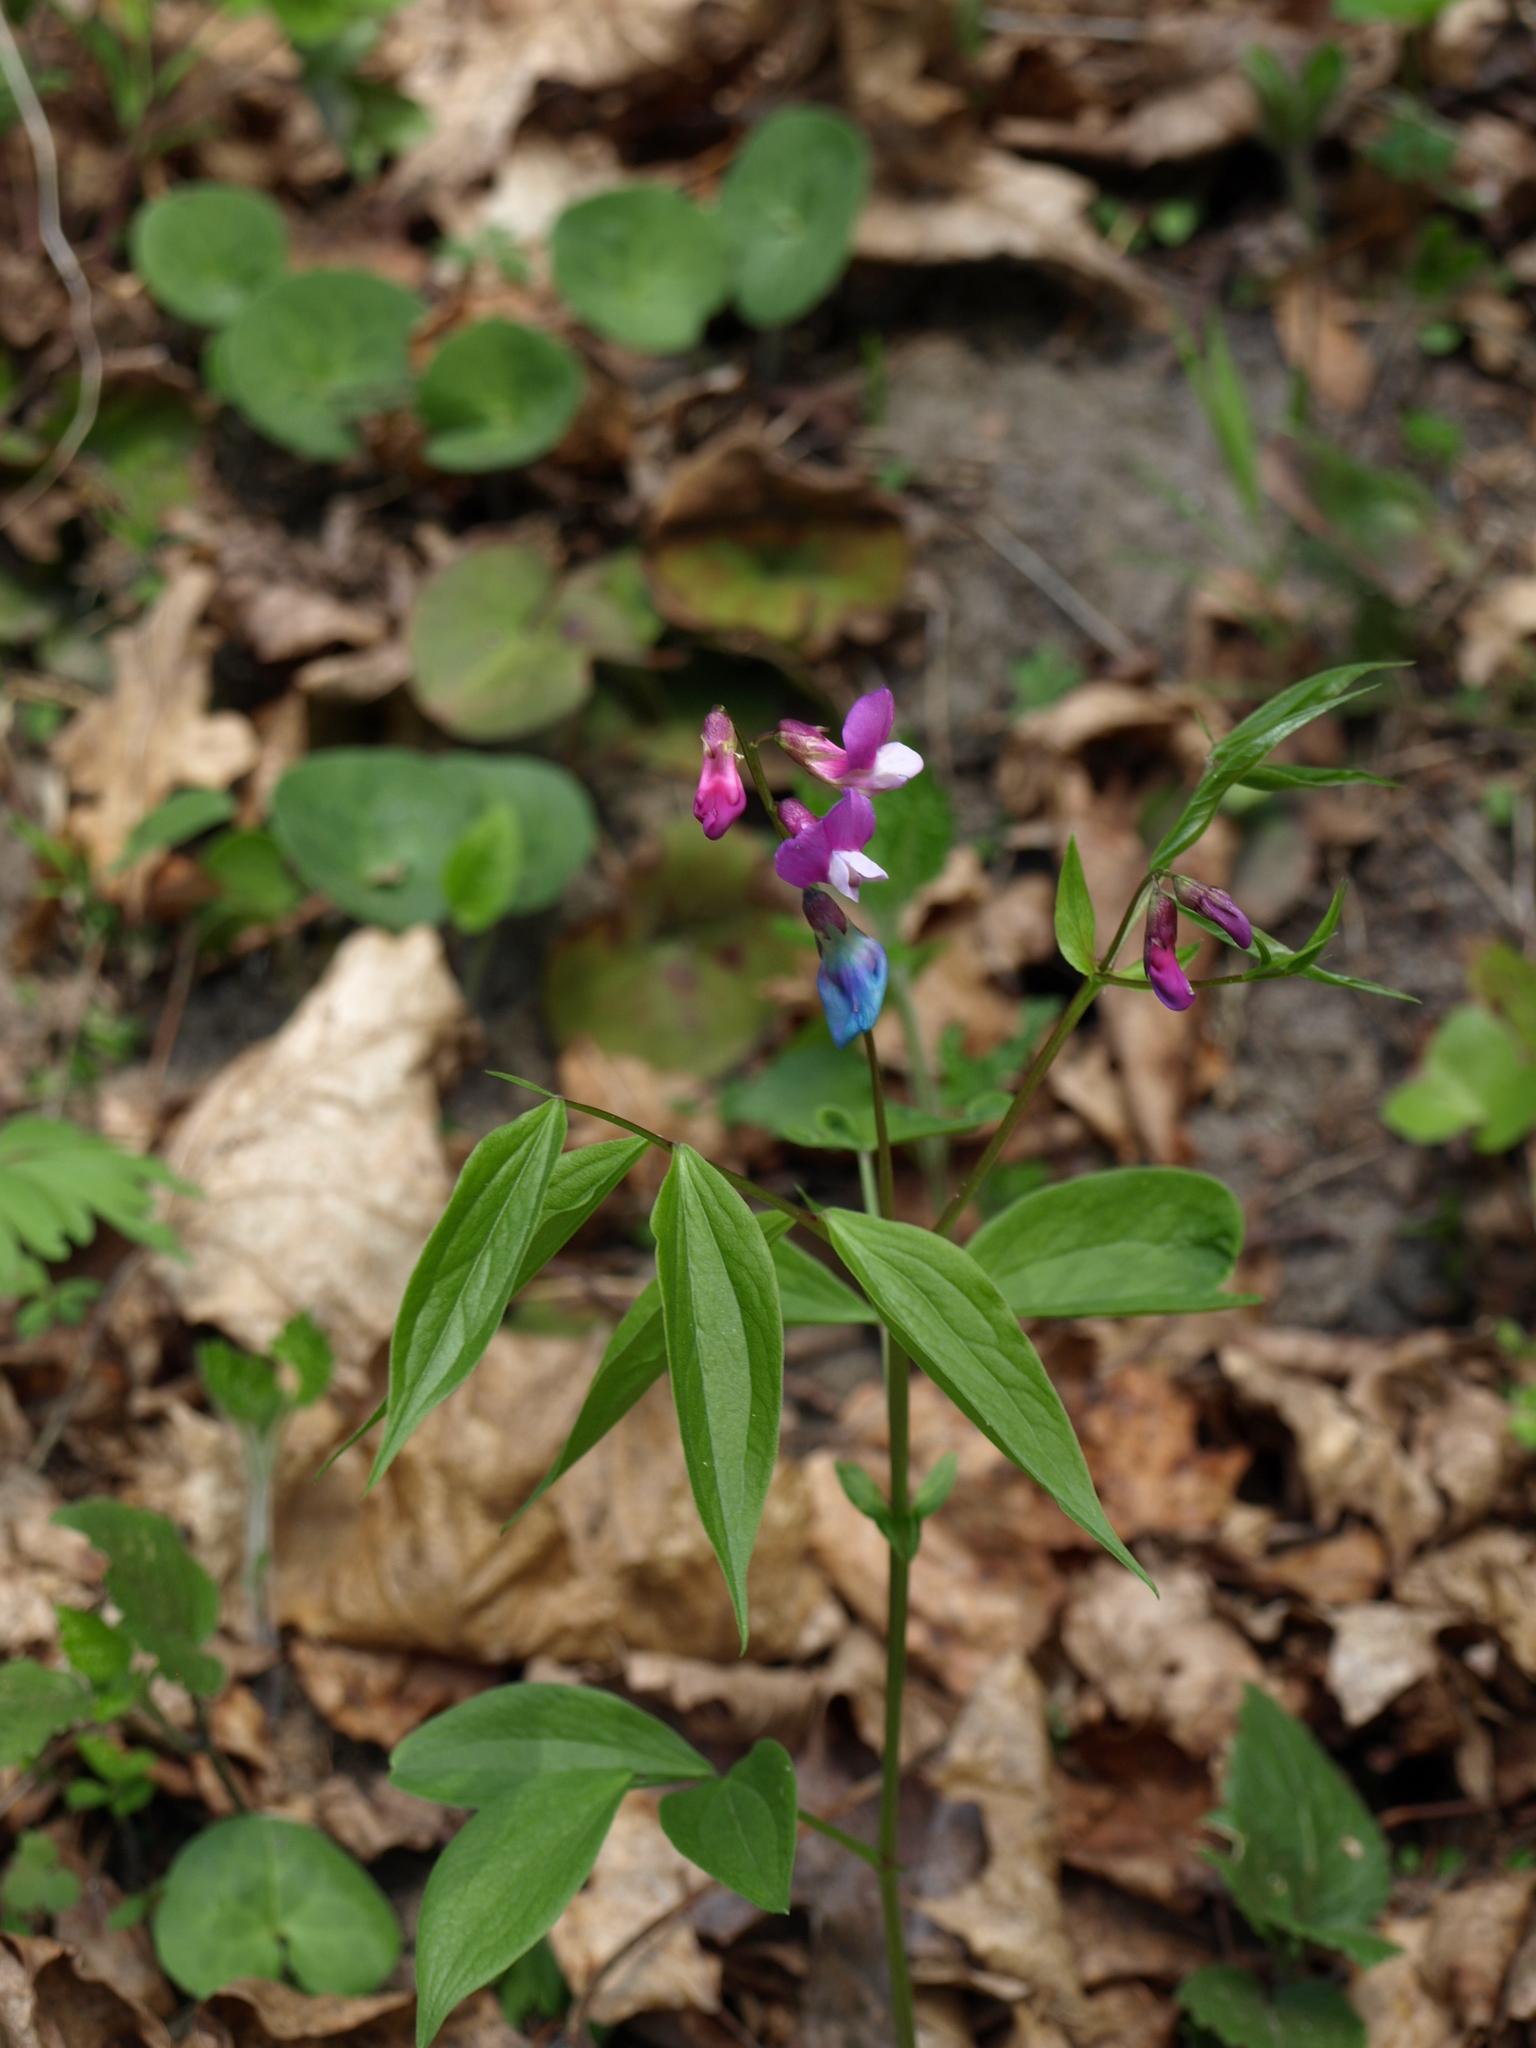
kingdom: Plantae
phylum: Tracheophyta
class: Magnoliopsida
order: Fabales
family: Fabaceae
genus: Lathyrus
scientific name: Lathyrus vernus
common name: Spring pea
